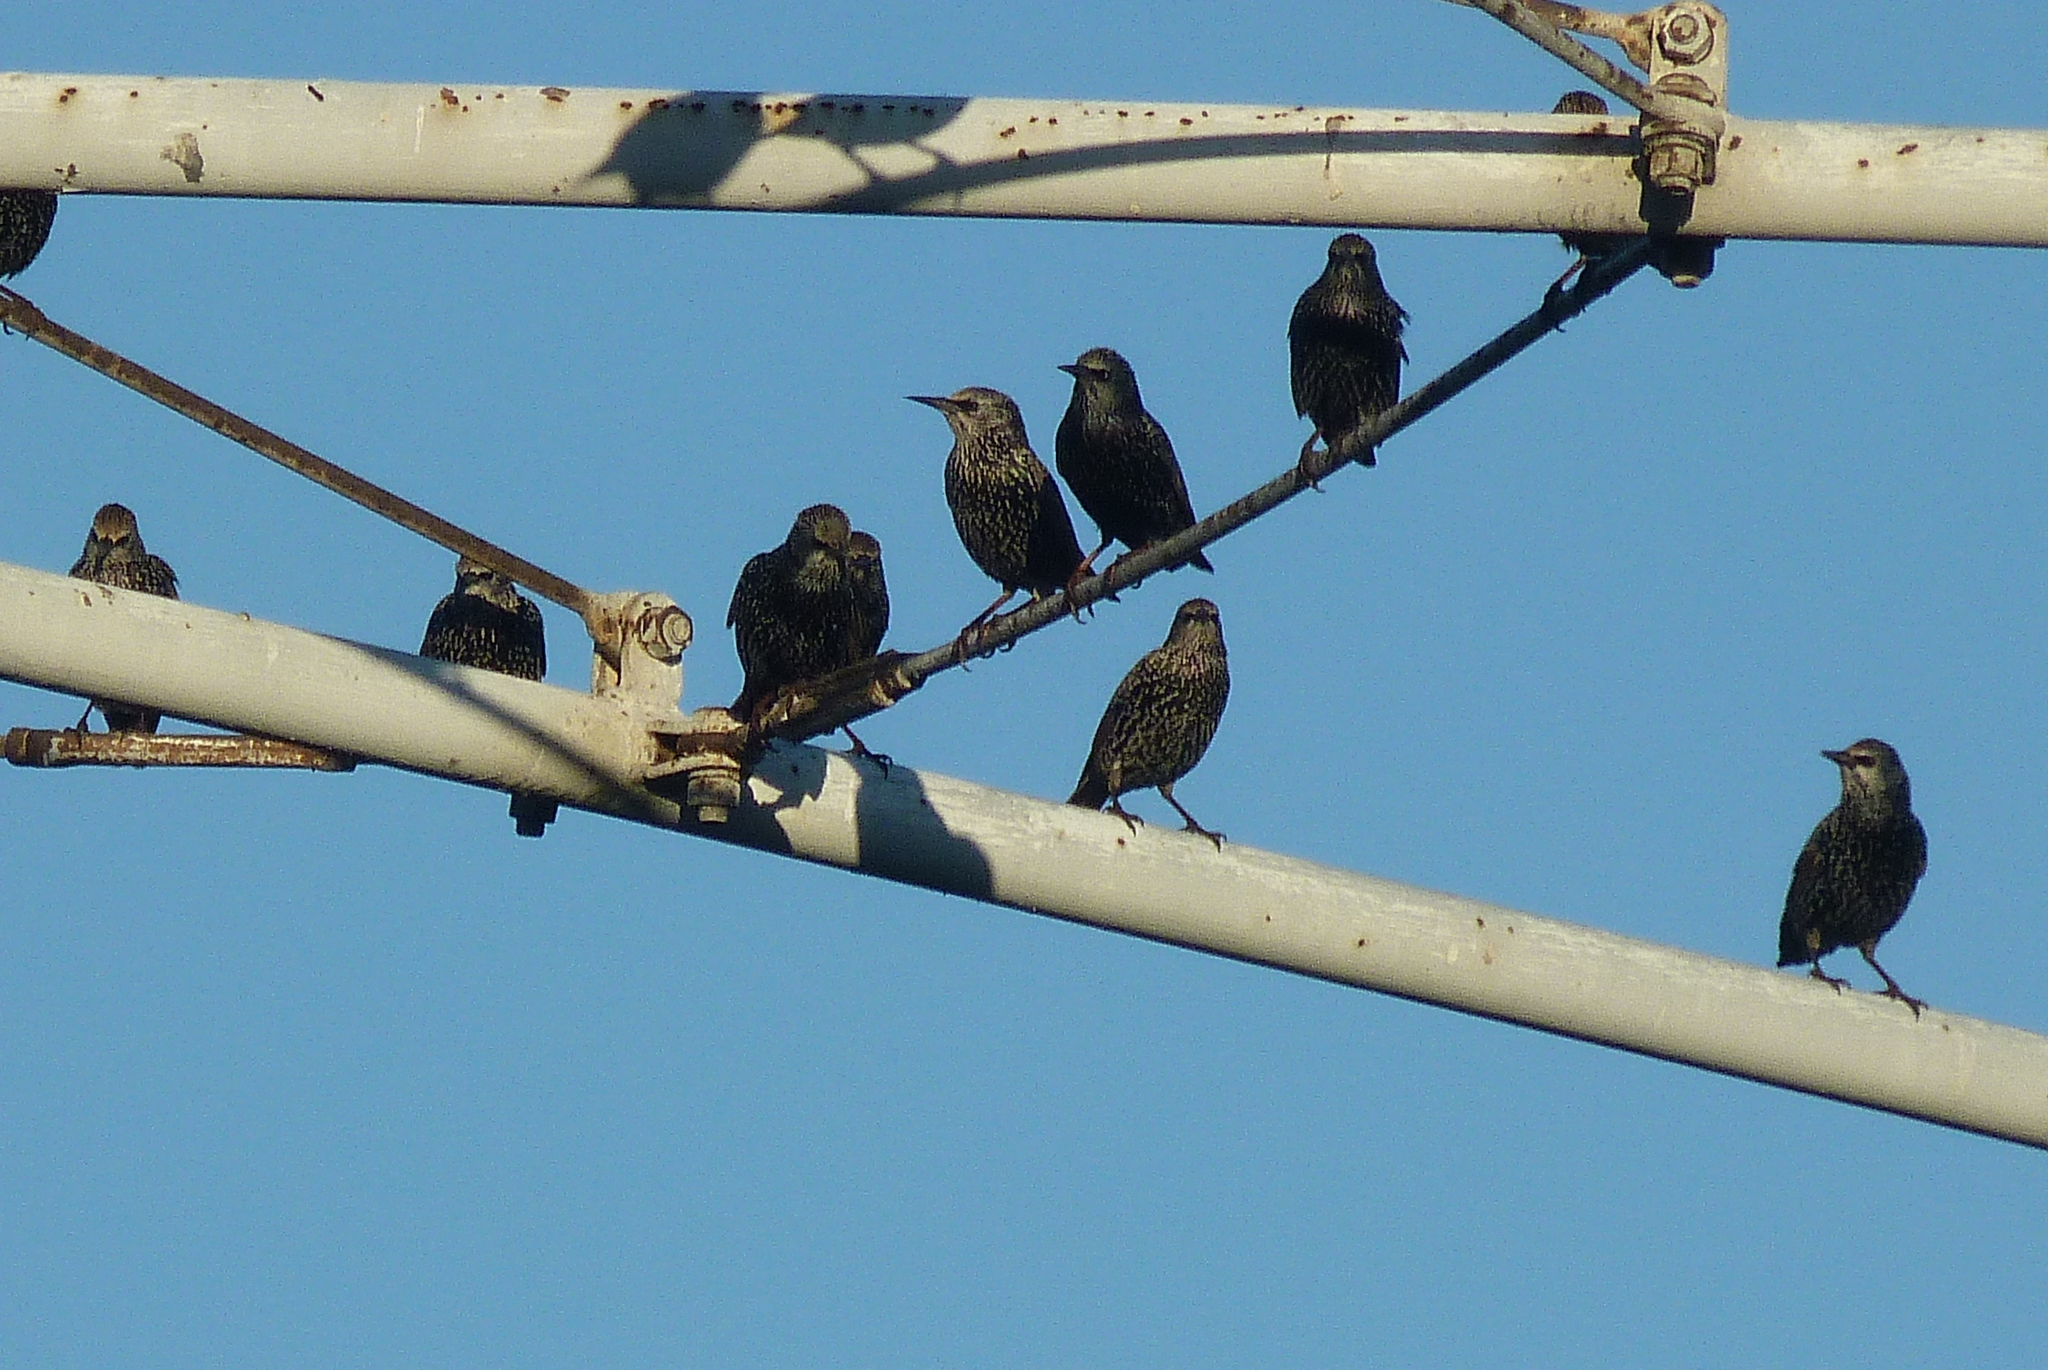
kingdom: Animalia
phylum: Chordata
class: Aves
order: Passeriformes
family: Sturnidae
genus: Sturnus
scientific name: Sturnus vulgaris
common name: Common starling
